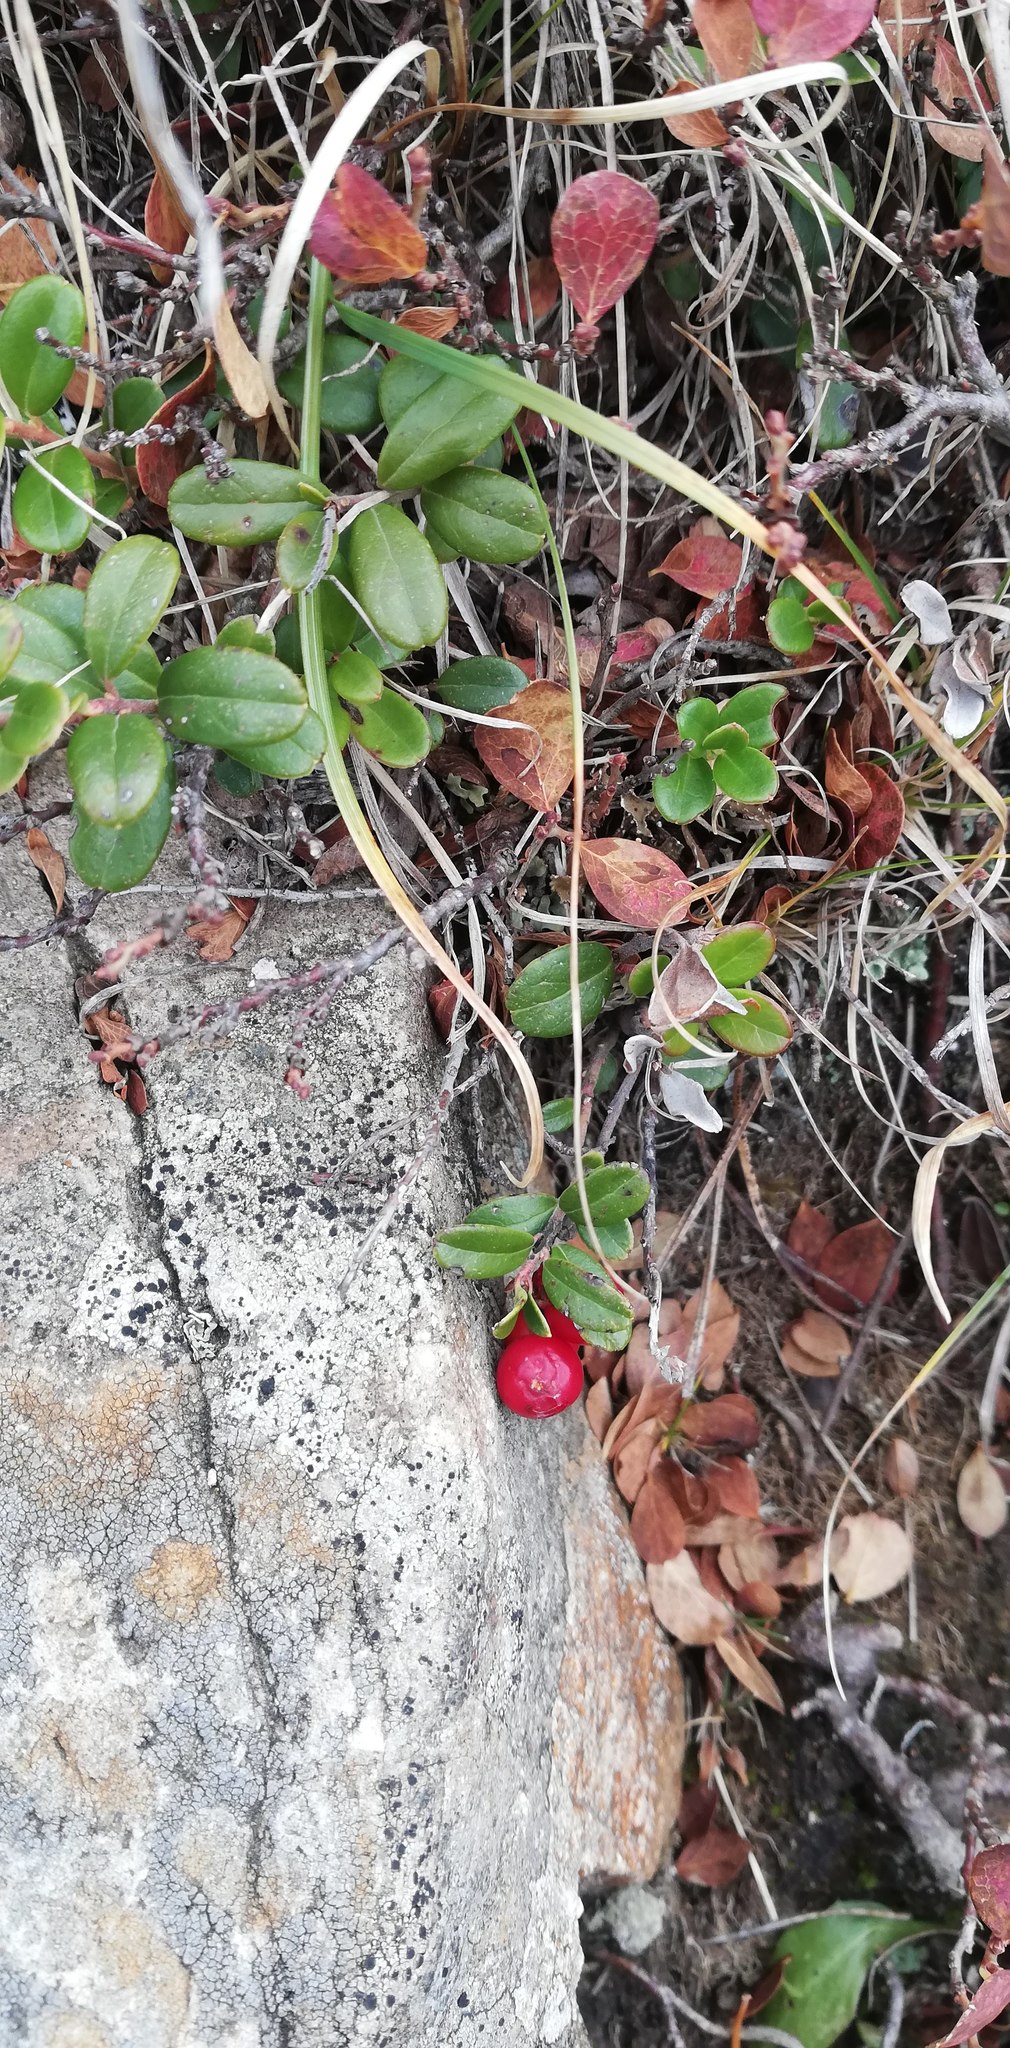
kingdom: Plantae
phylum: Tracheophyta
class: Magnoliopsida
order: Ericales
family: Ericaceae
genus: Vaccinium
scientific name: Vaccinium vitis-idaea
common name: Cowberry
